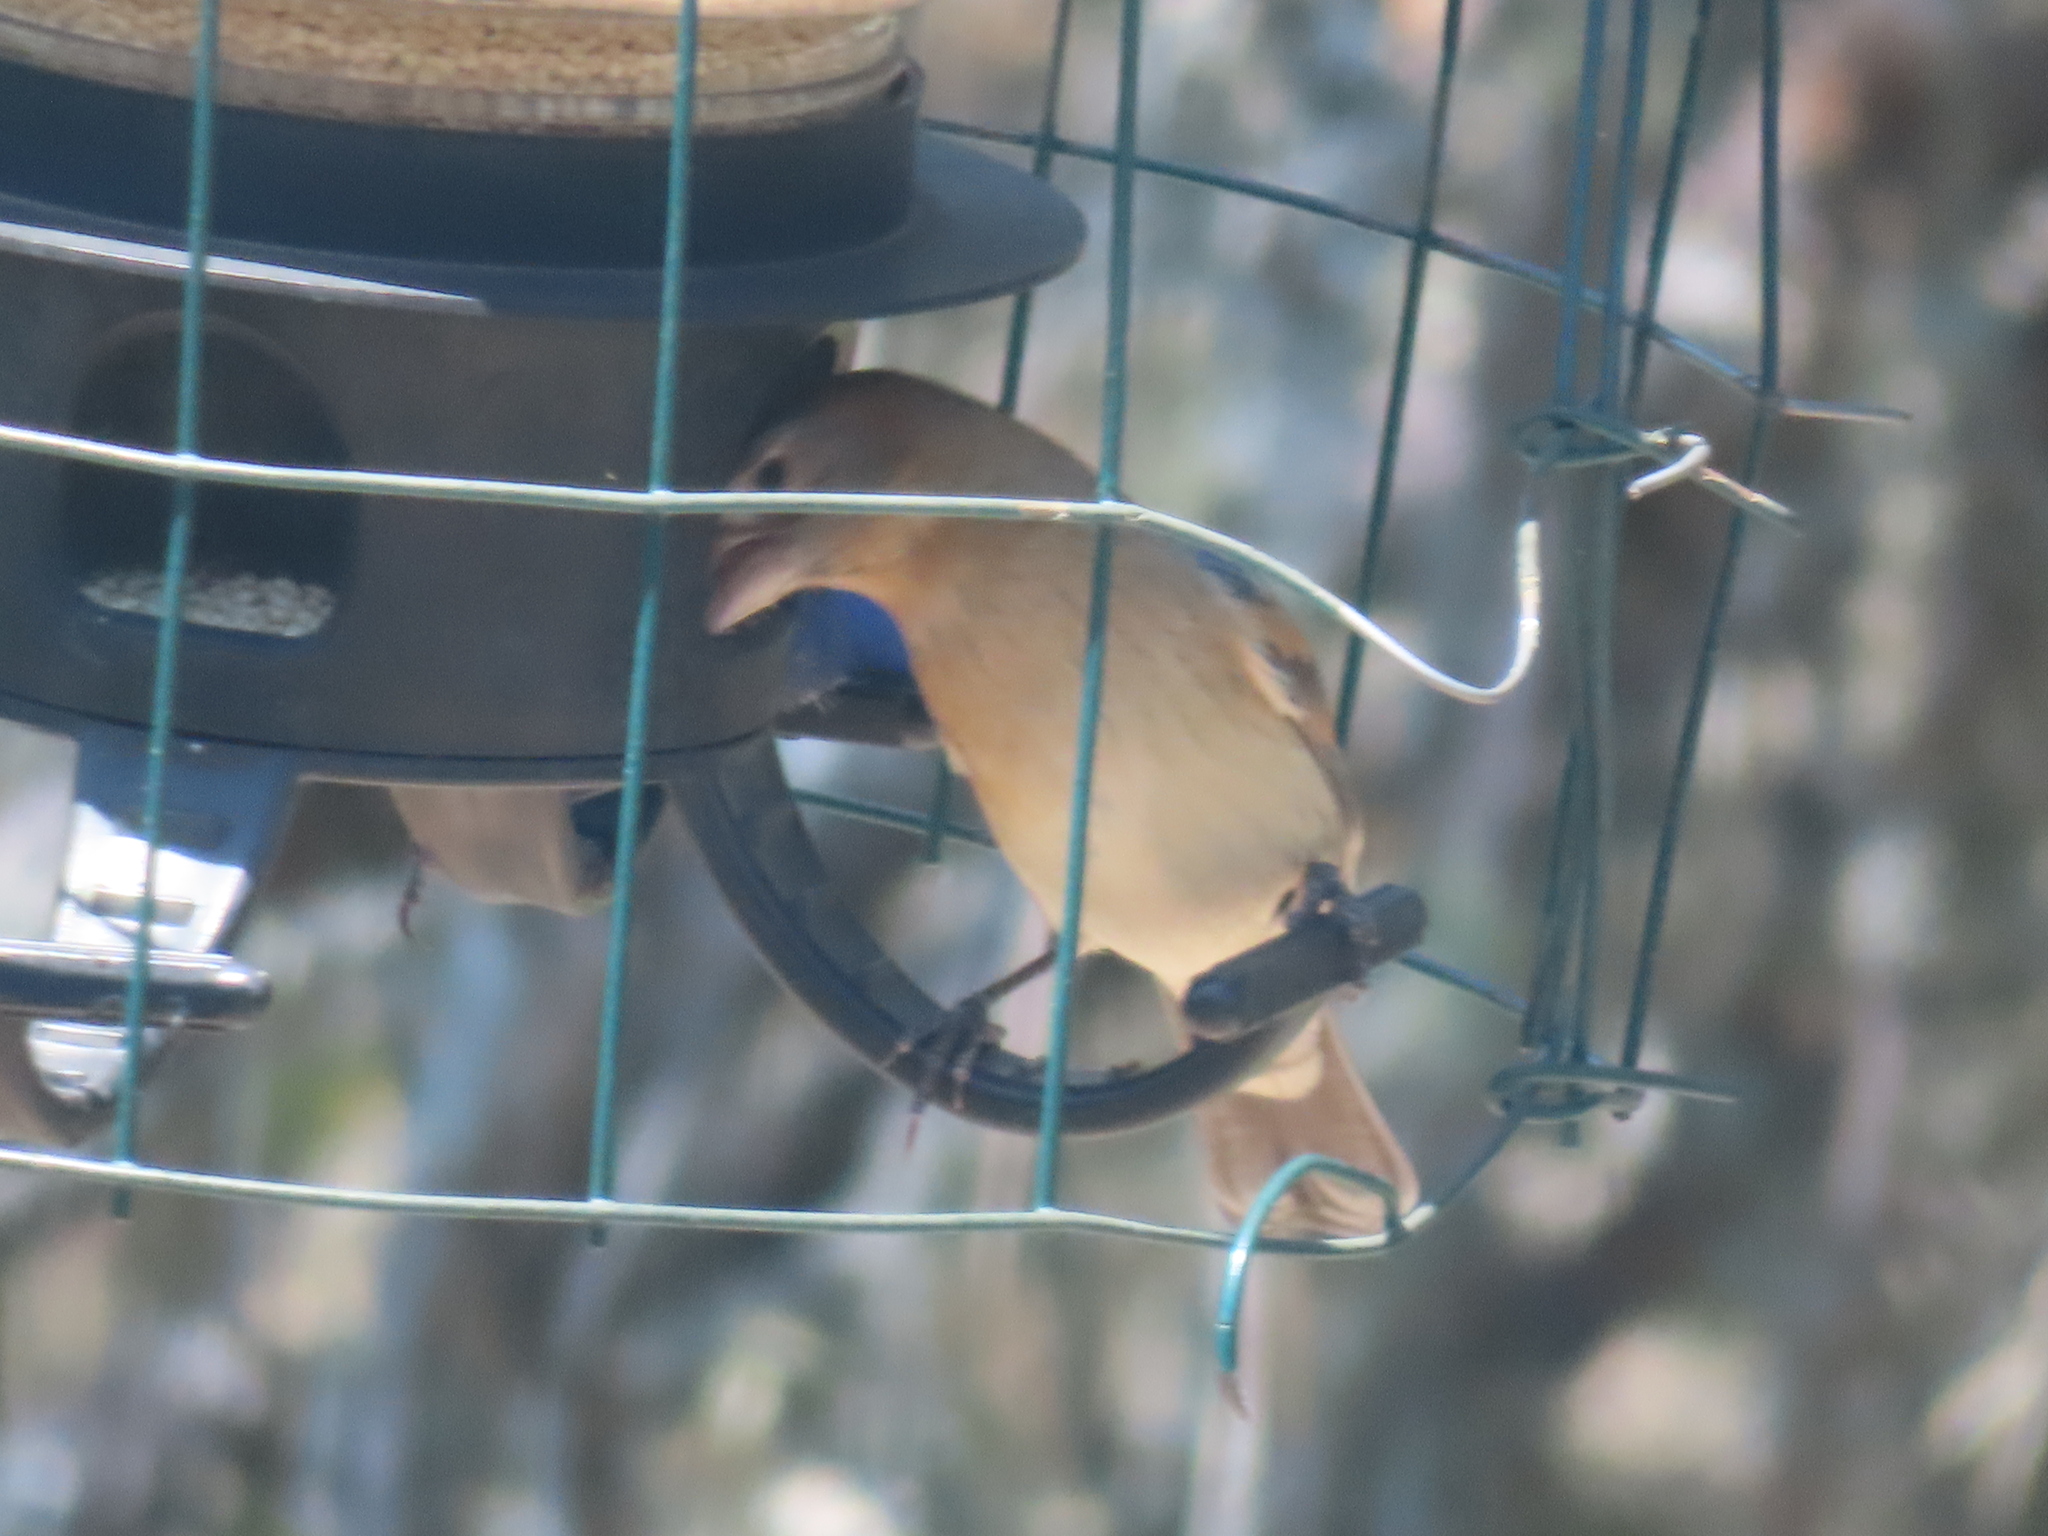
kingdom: Animalia
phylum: Chordata
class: Aves
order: Passeriformes
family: Cardinalidae
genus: Passerina
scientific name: Passerina caerulea
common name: Blue grosbeak
